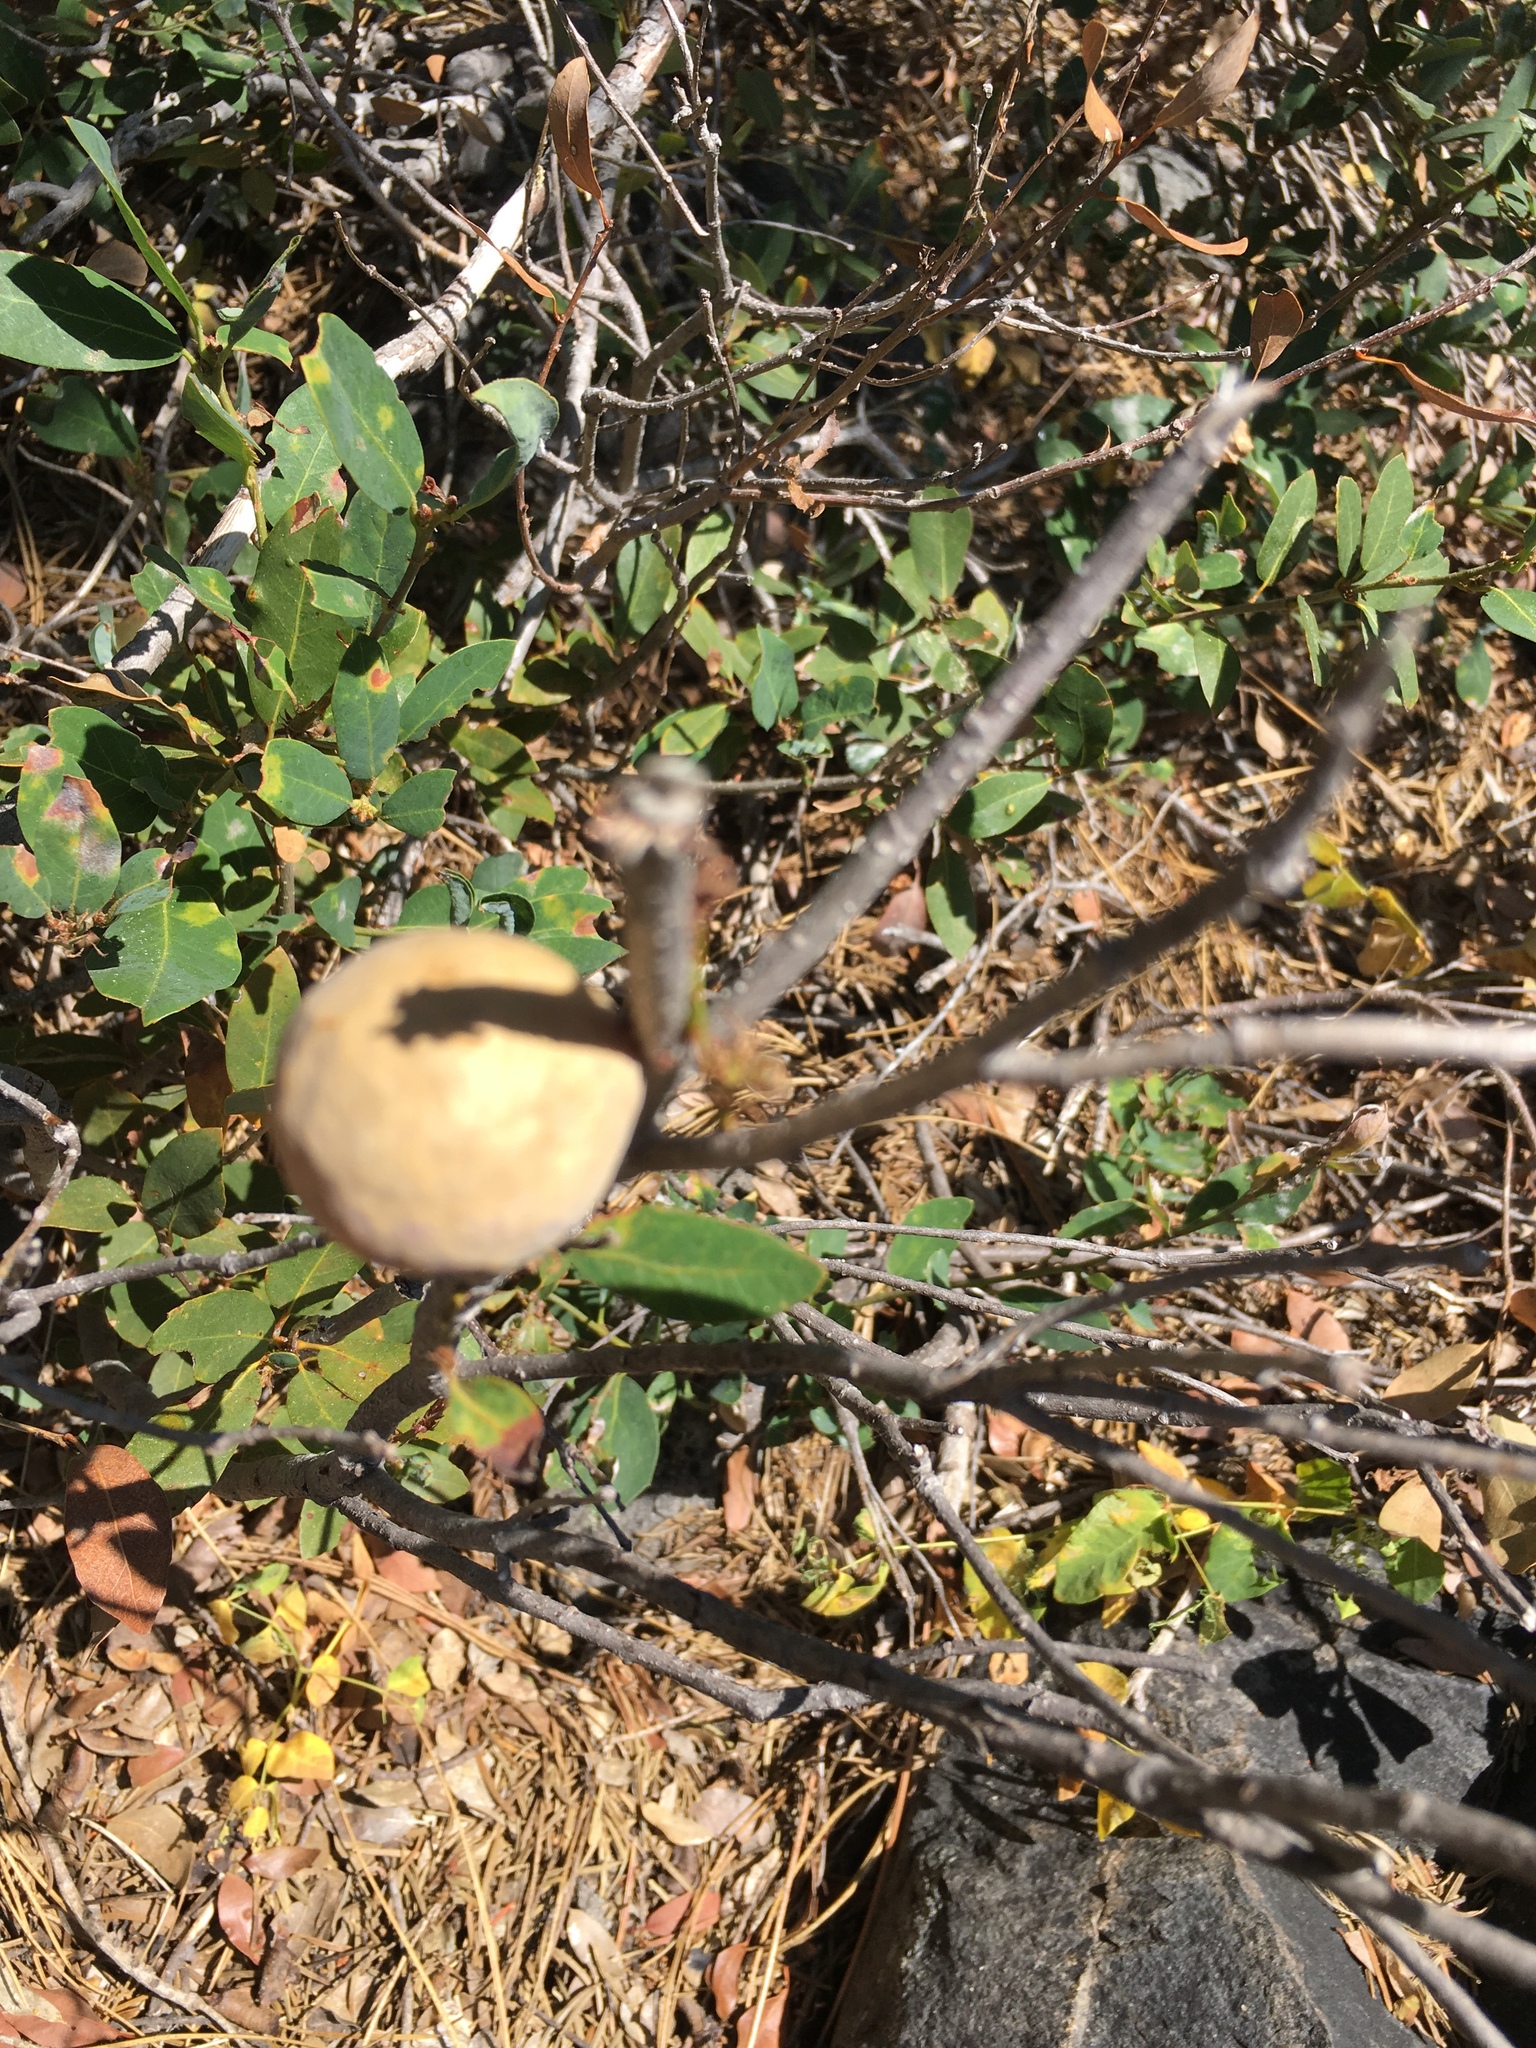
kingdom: Animalia
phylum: Arthropoda
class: Insecta
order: Hymenoptera
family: Cynipidae
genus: Andricus
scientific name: Andricus quercuscalifornicus
